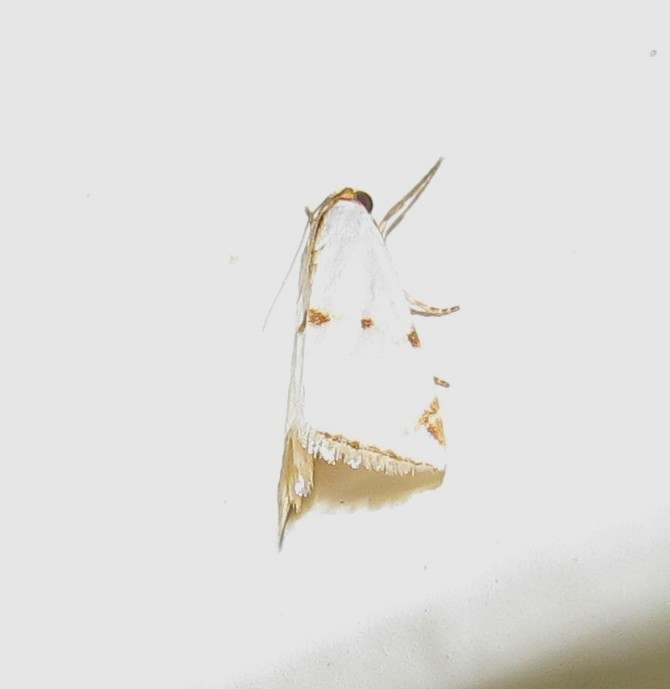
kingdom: Animalia
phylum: Arthropoda
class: Insecta
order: Lepidoptera
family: Crambidae
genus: Argyria
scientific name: Argyria lacteella
